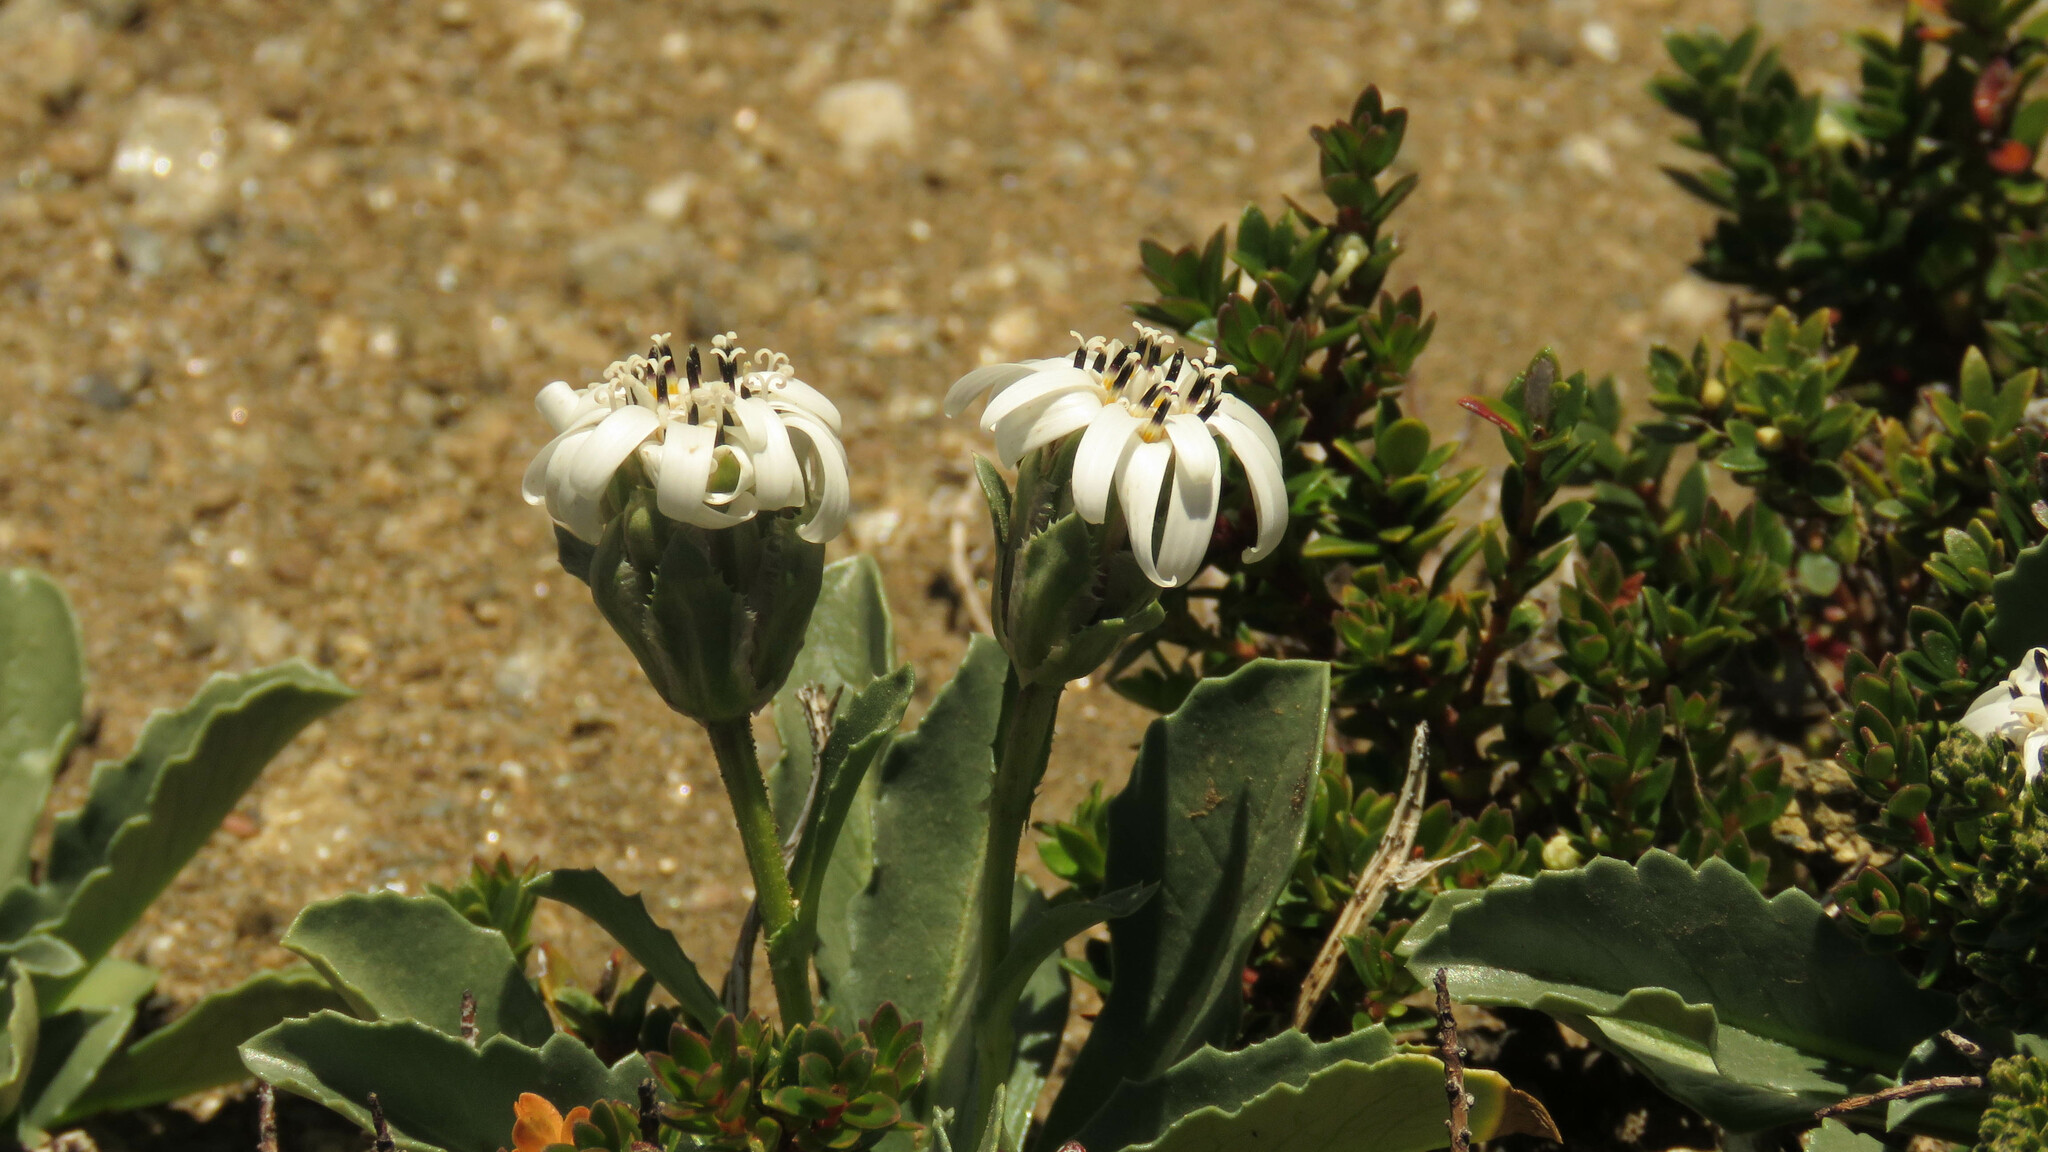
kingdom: Plantae
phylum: Tracheophyta
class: Magnoliopsida
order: Asterales
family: Asteraceae
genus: Perezia
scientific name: Perezia bellidifolia
